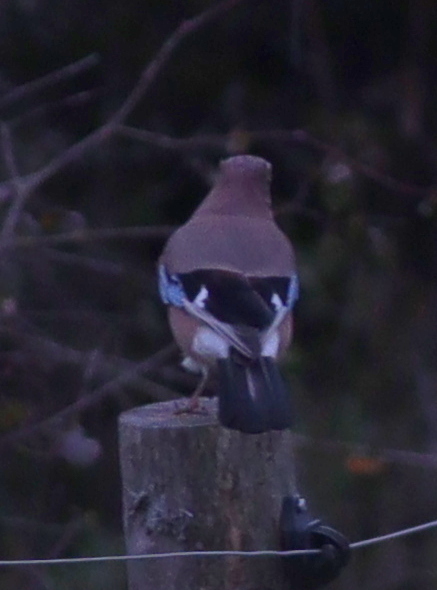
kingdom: Animalia
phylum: Chordata
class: Aves
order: Passeriformes
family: Corvidae
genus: Garrulus
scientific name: Garrulus glandarius
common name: Eurasian jay
